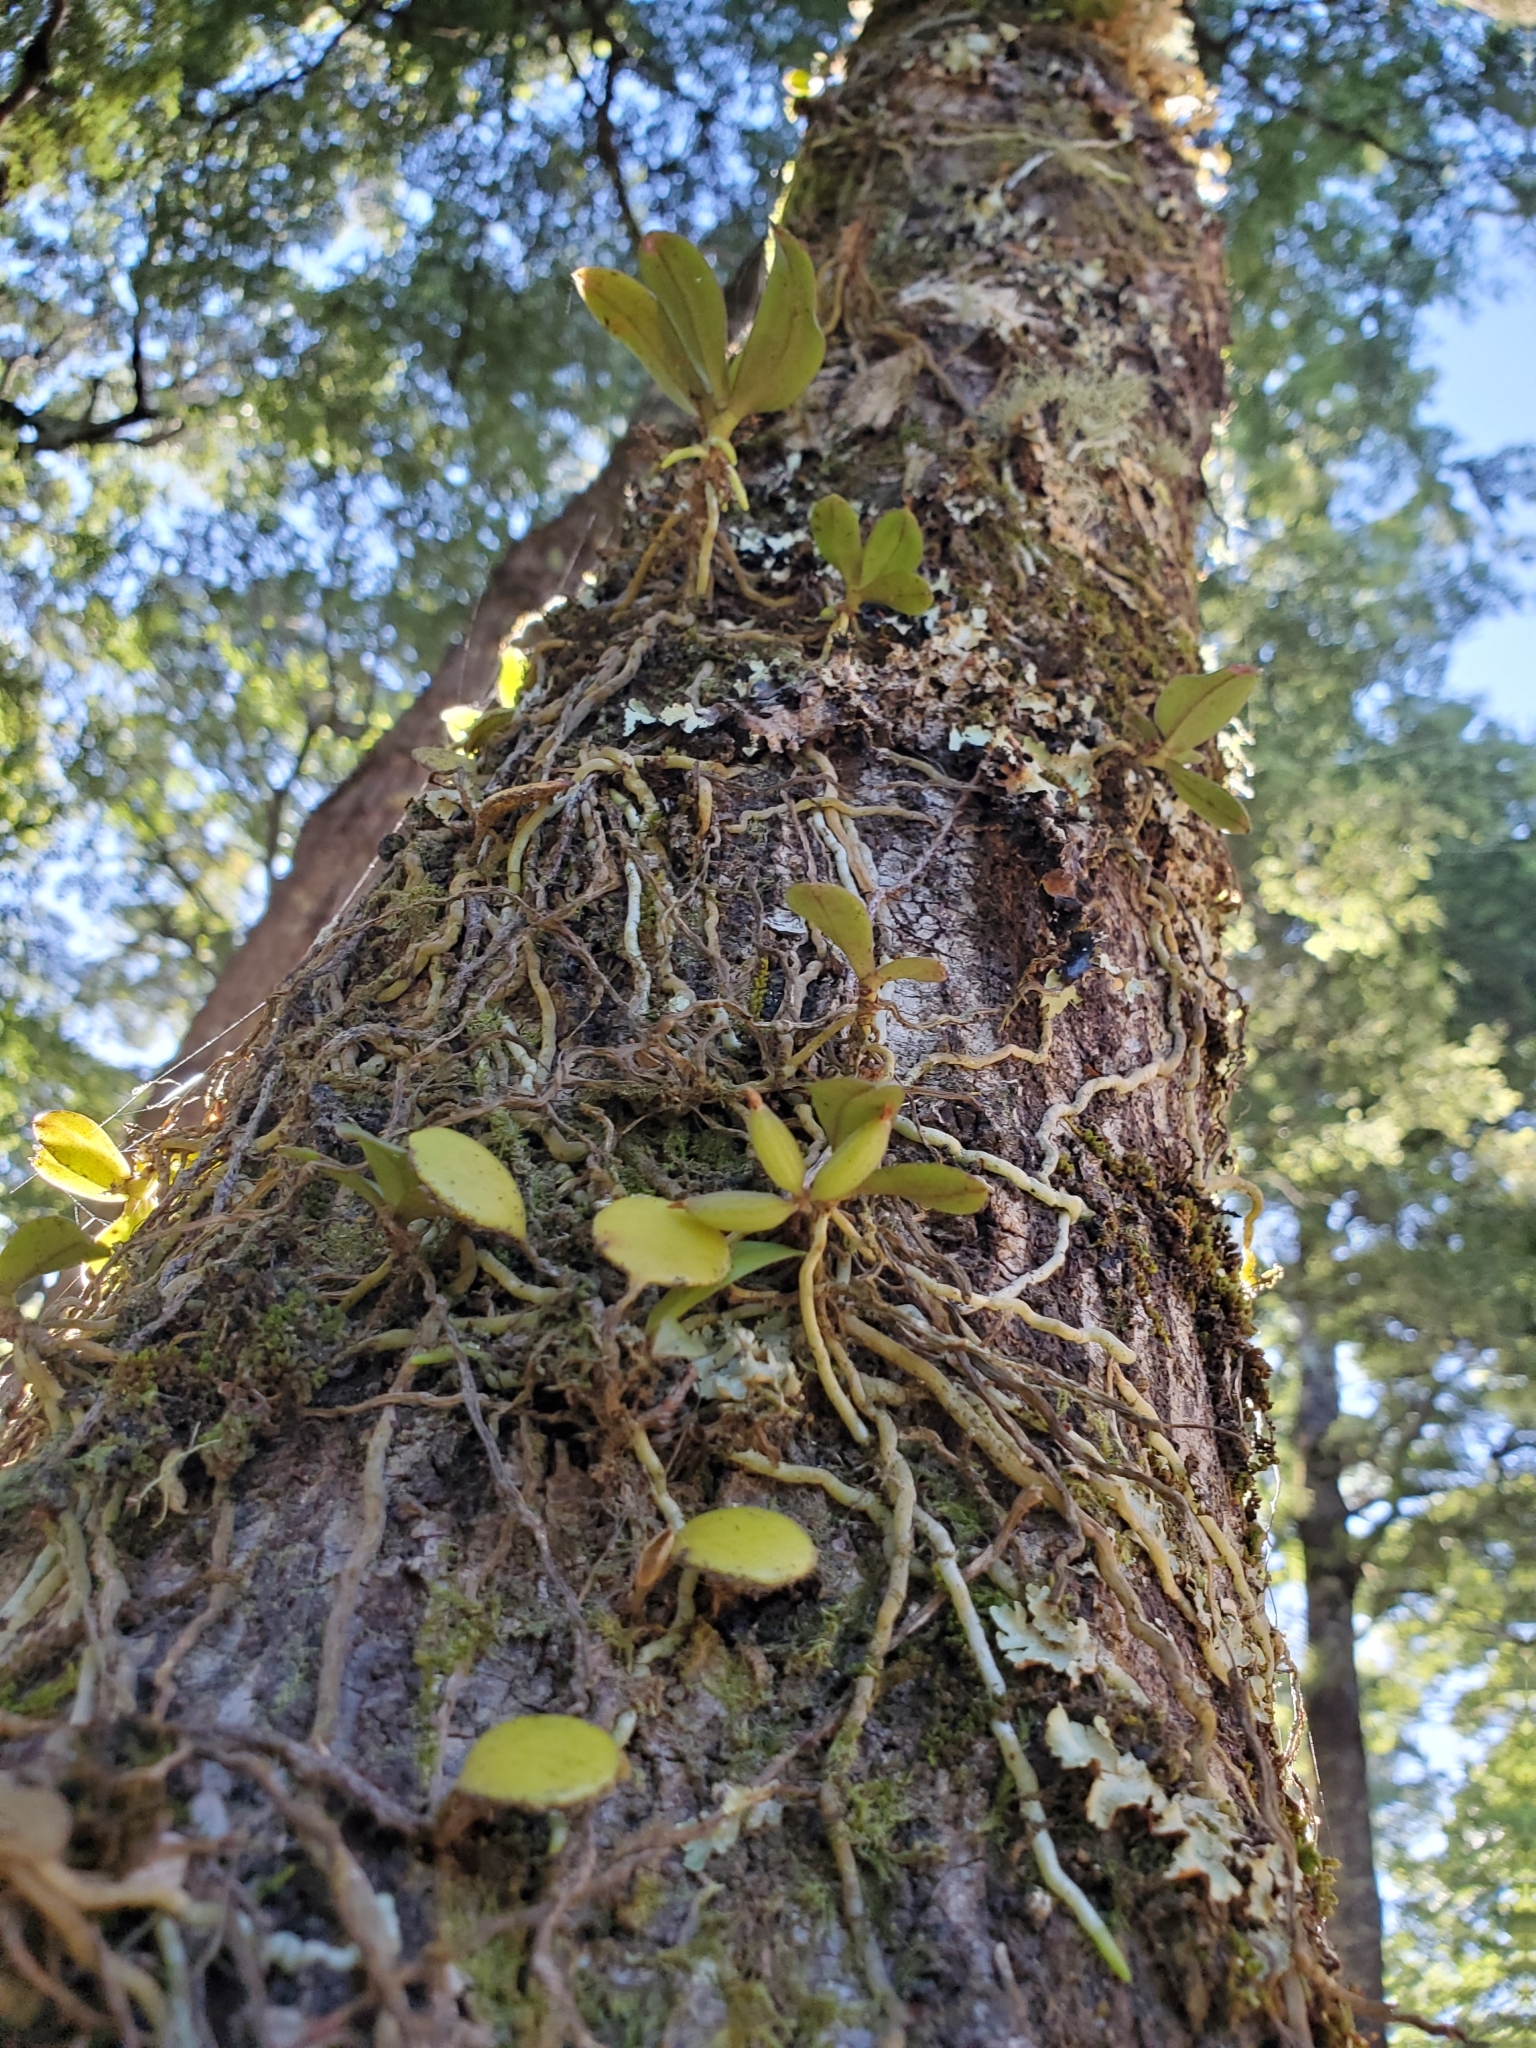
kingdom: Plantae
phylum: Tracheophyta
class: Liliopsida
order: Asparagales
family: Orchidaceae
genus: Drymoanthus
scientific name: Drymoanthus adversus
